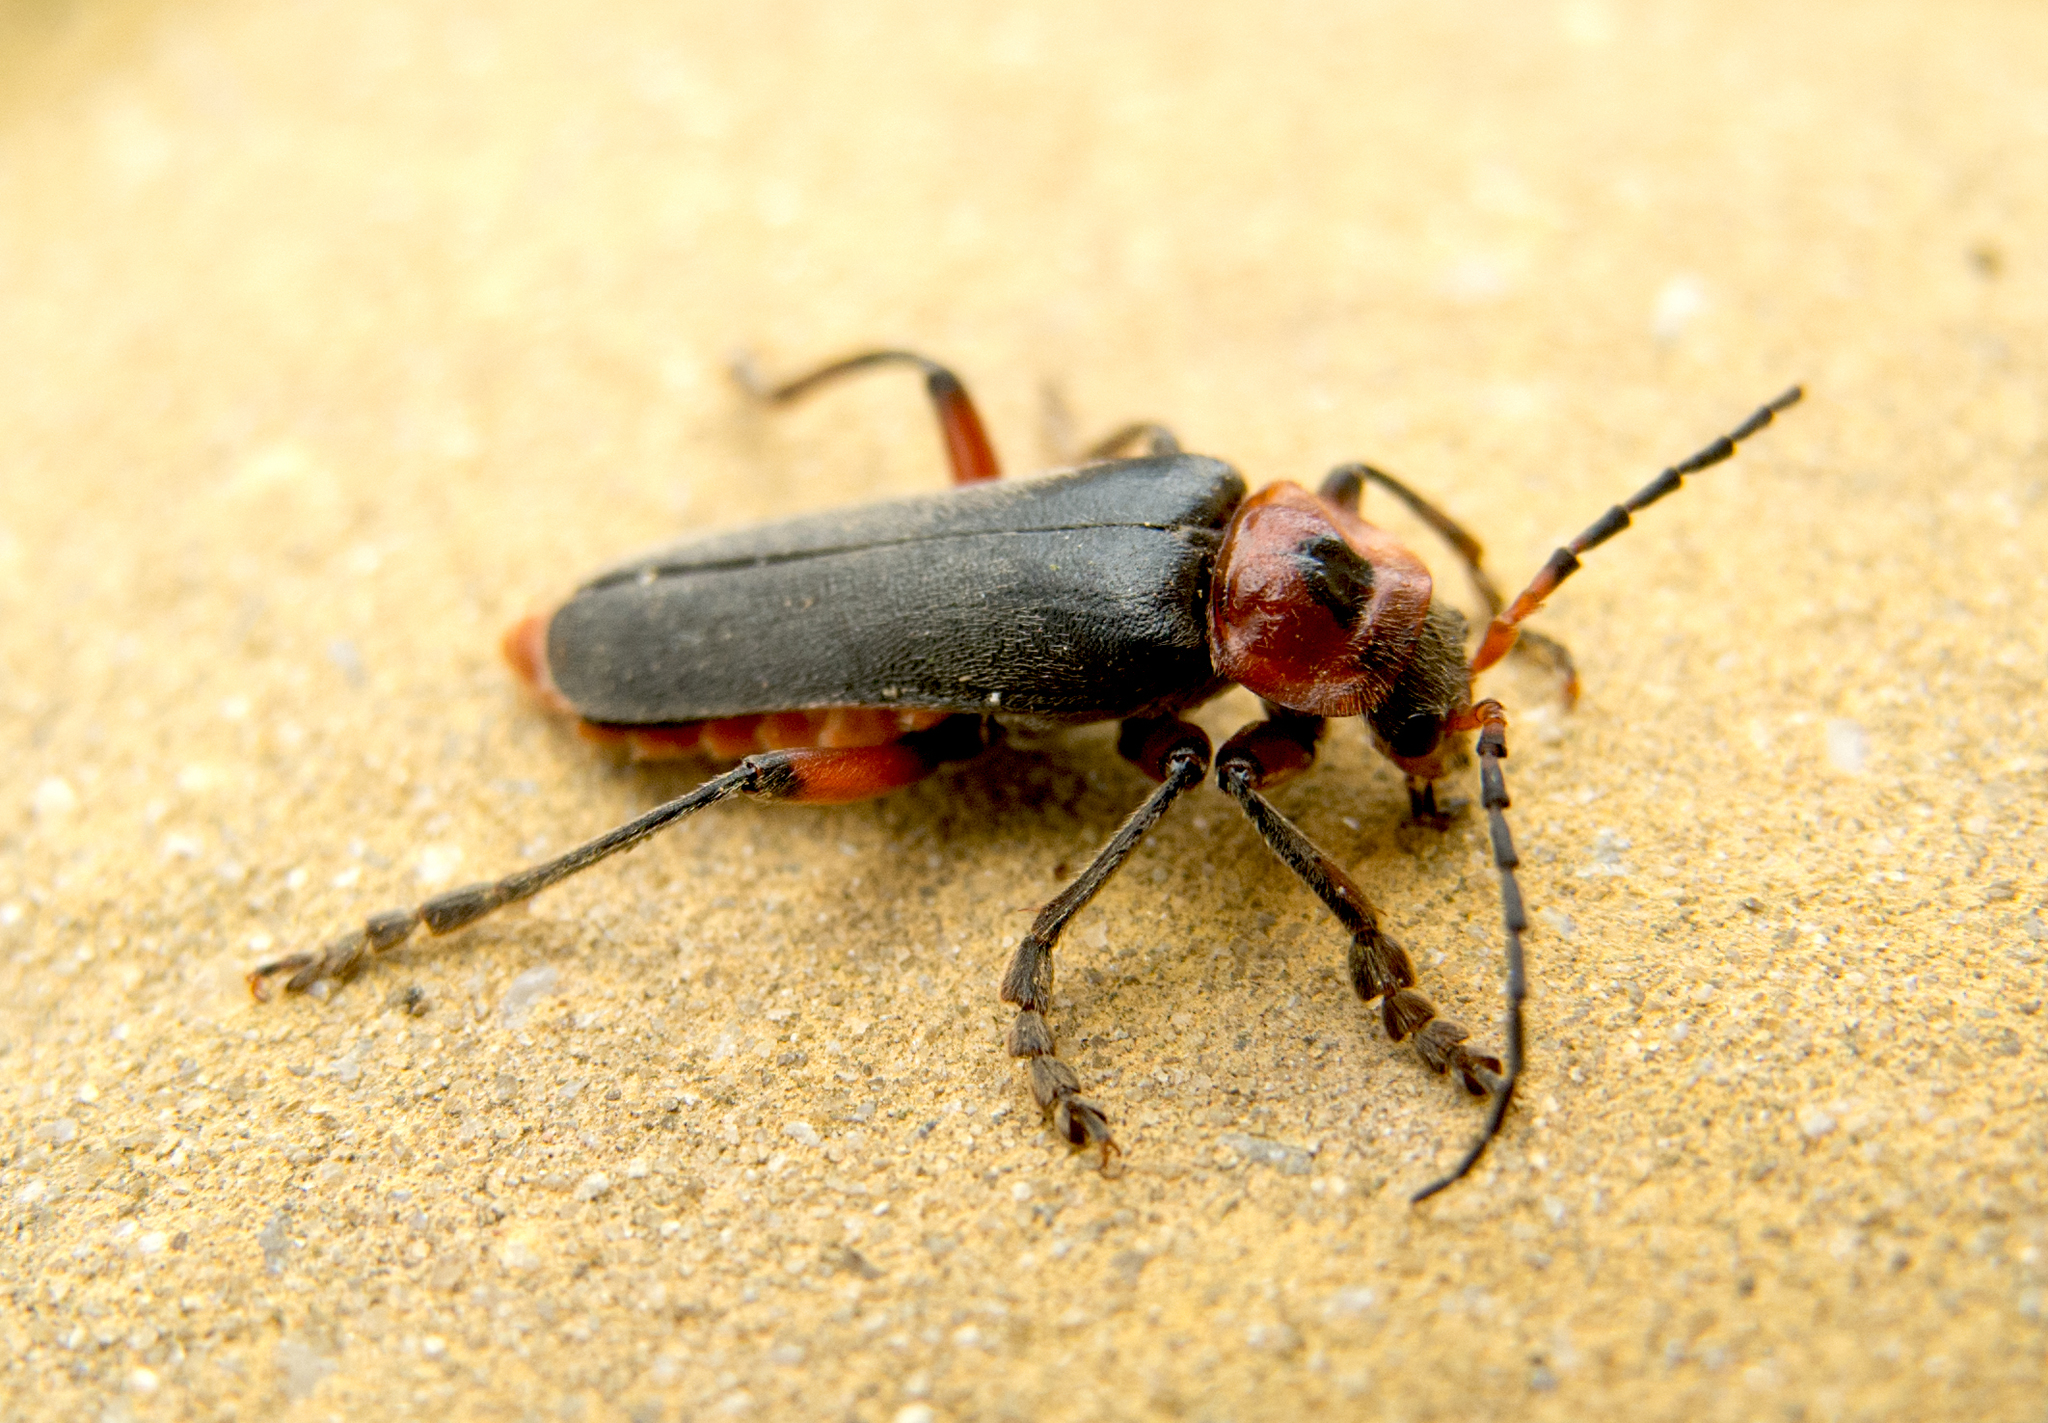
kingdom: Animalia
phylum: Arthropoda
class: Insecta
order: Coleoptera
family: Cantharidae
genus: Cantharis
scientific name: Cantharis rustica
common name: Soldier beetle
